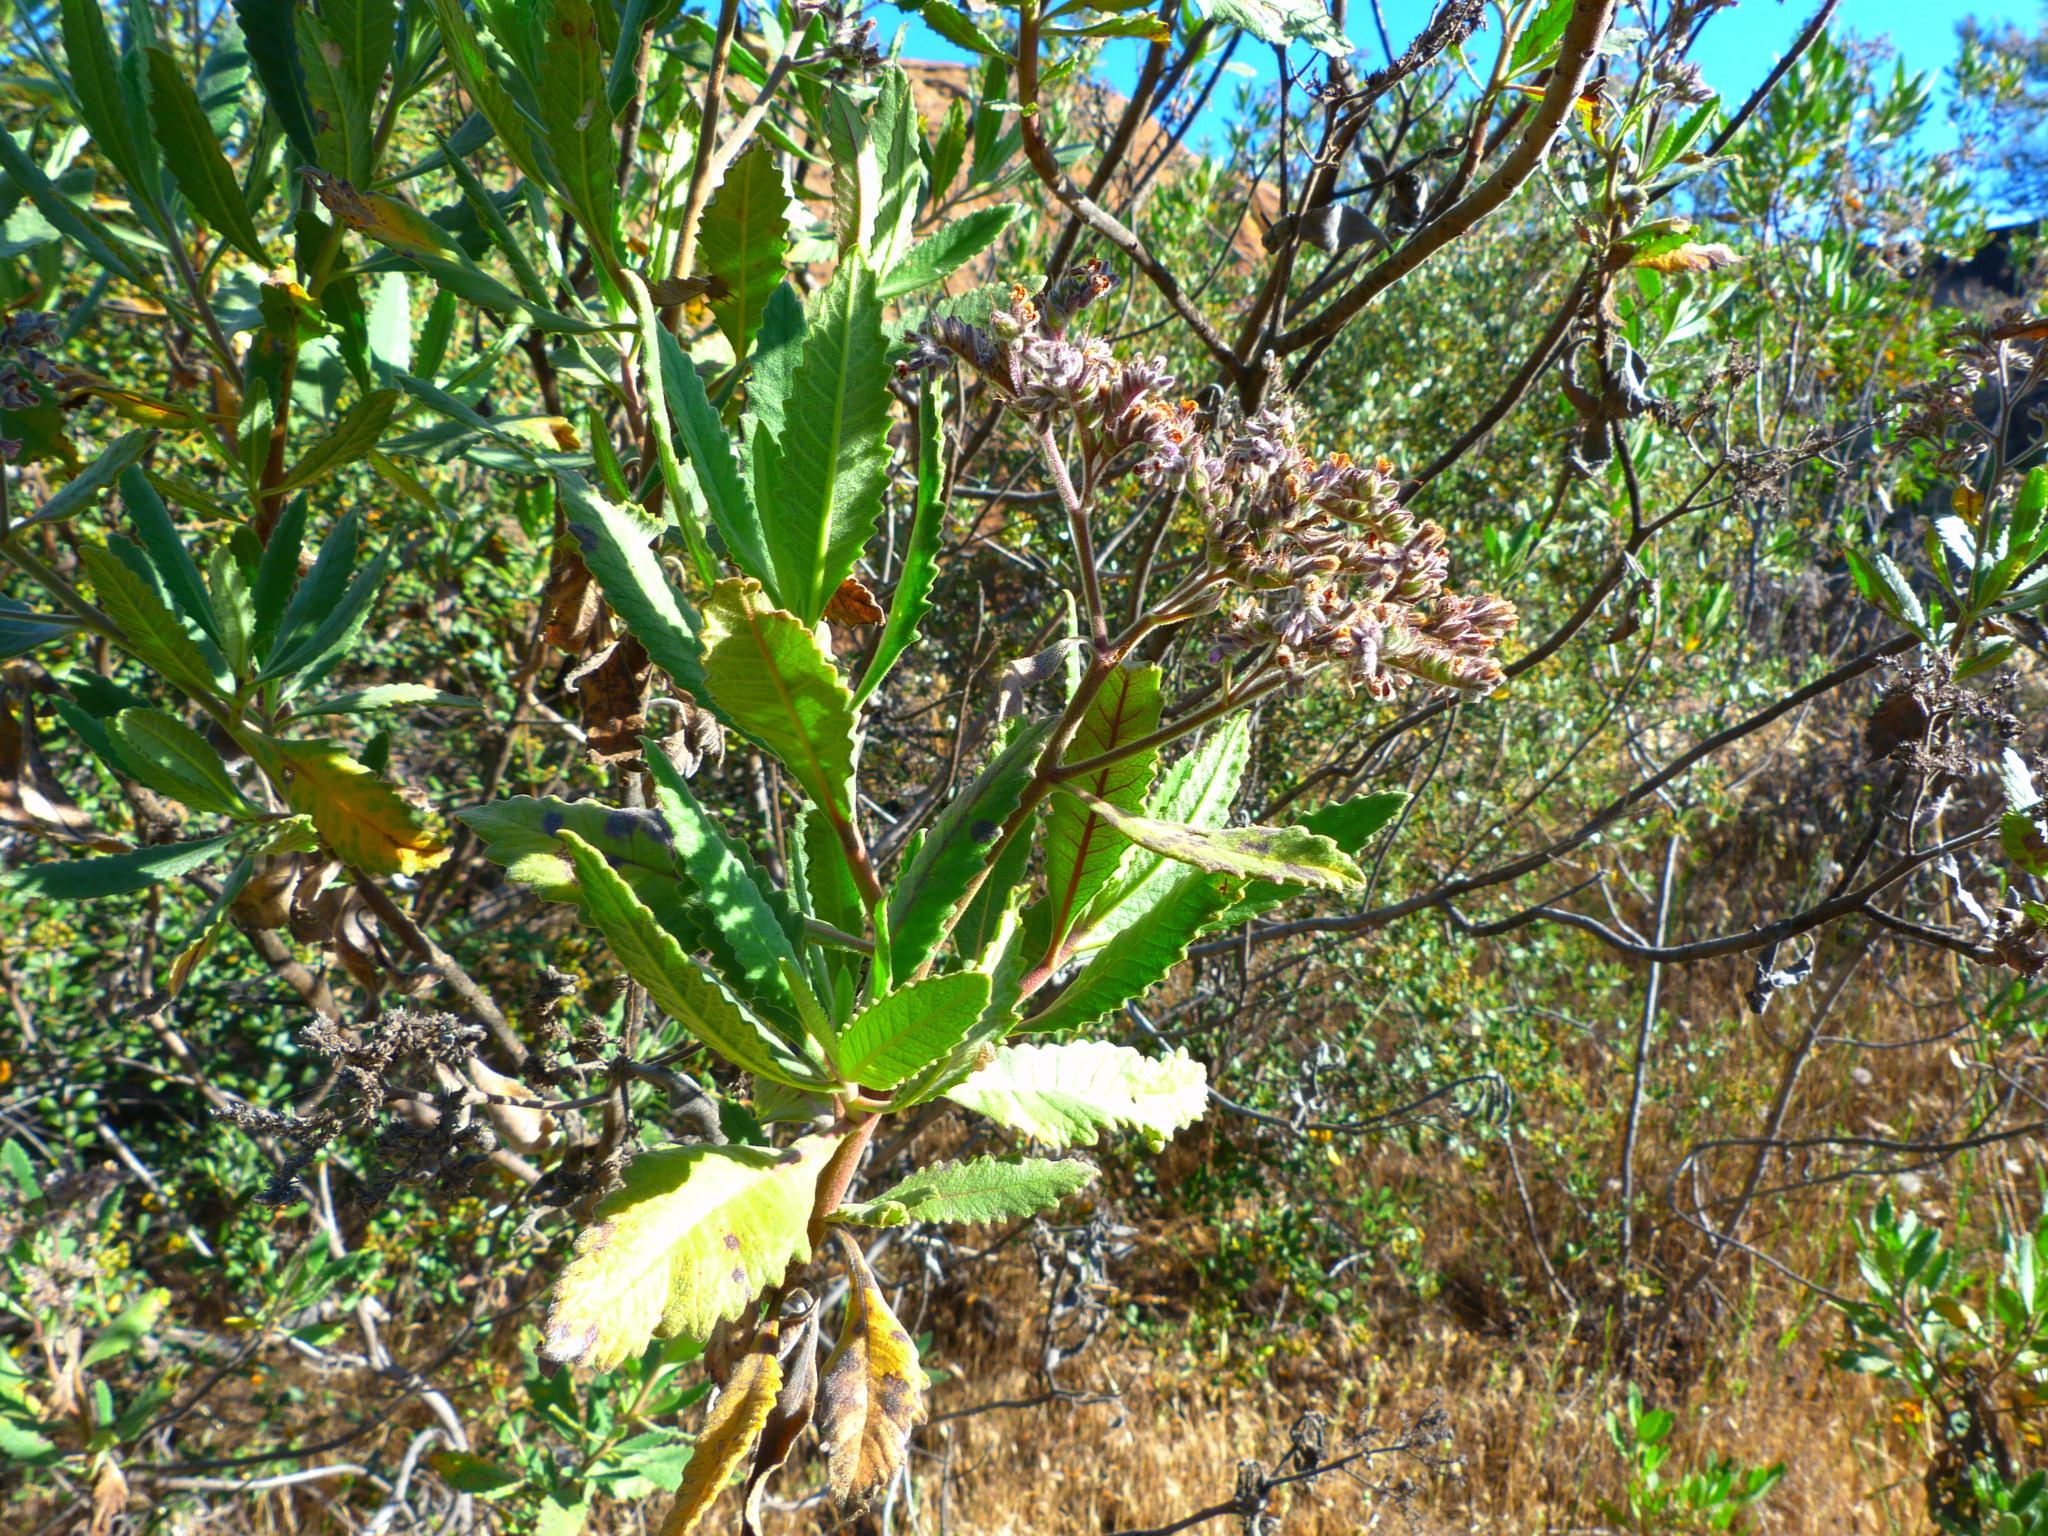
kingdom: Plantae
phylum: Tracheophyta
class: Magnoliopsida
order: Boraginales
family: Namaceae
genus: Eriodictyon
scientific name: Eriodictyon crassifolium
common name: Thick-leaf yerba-santa
